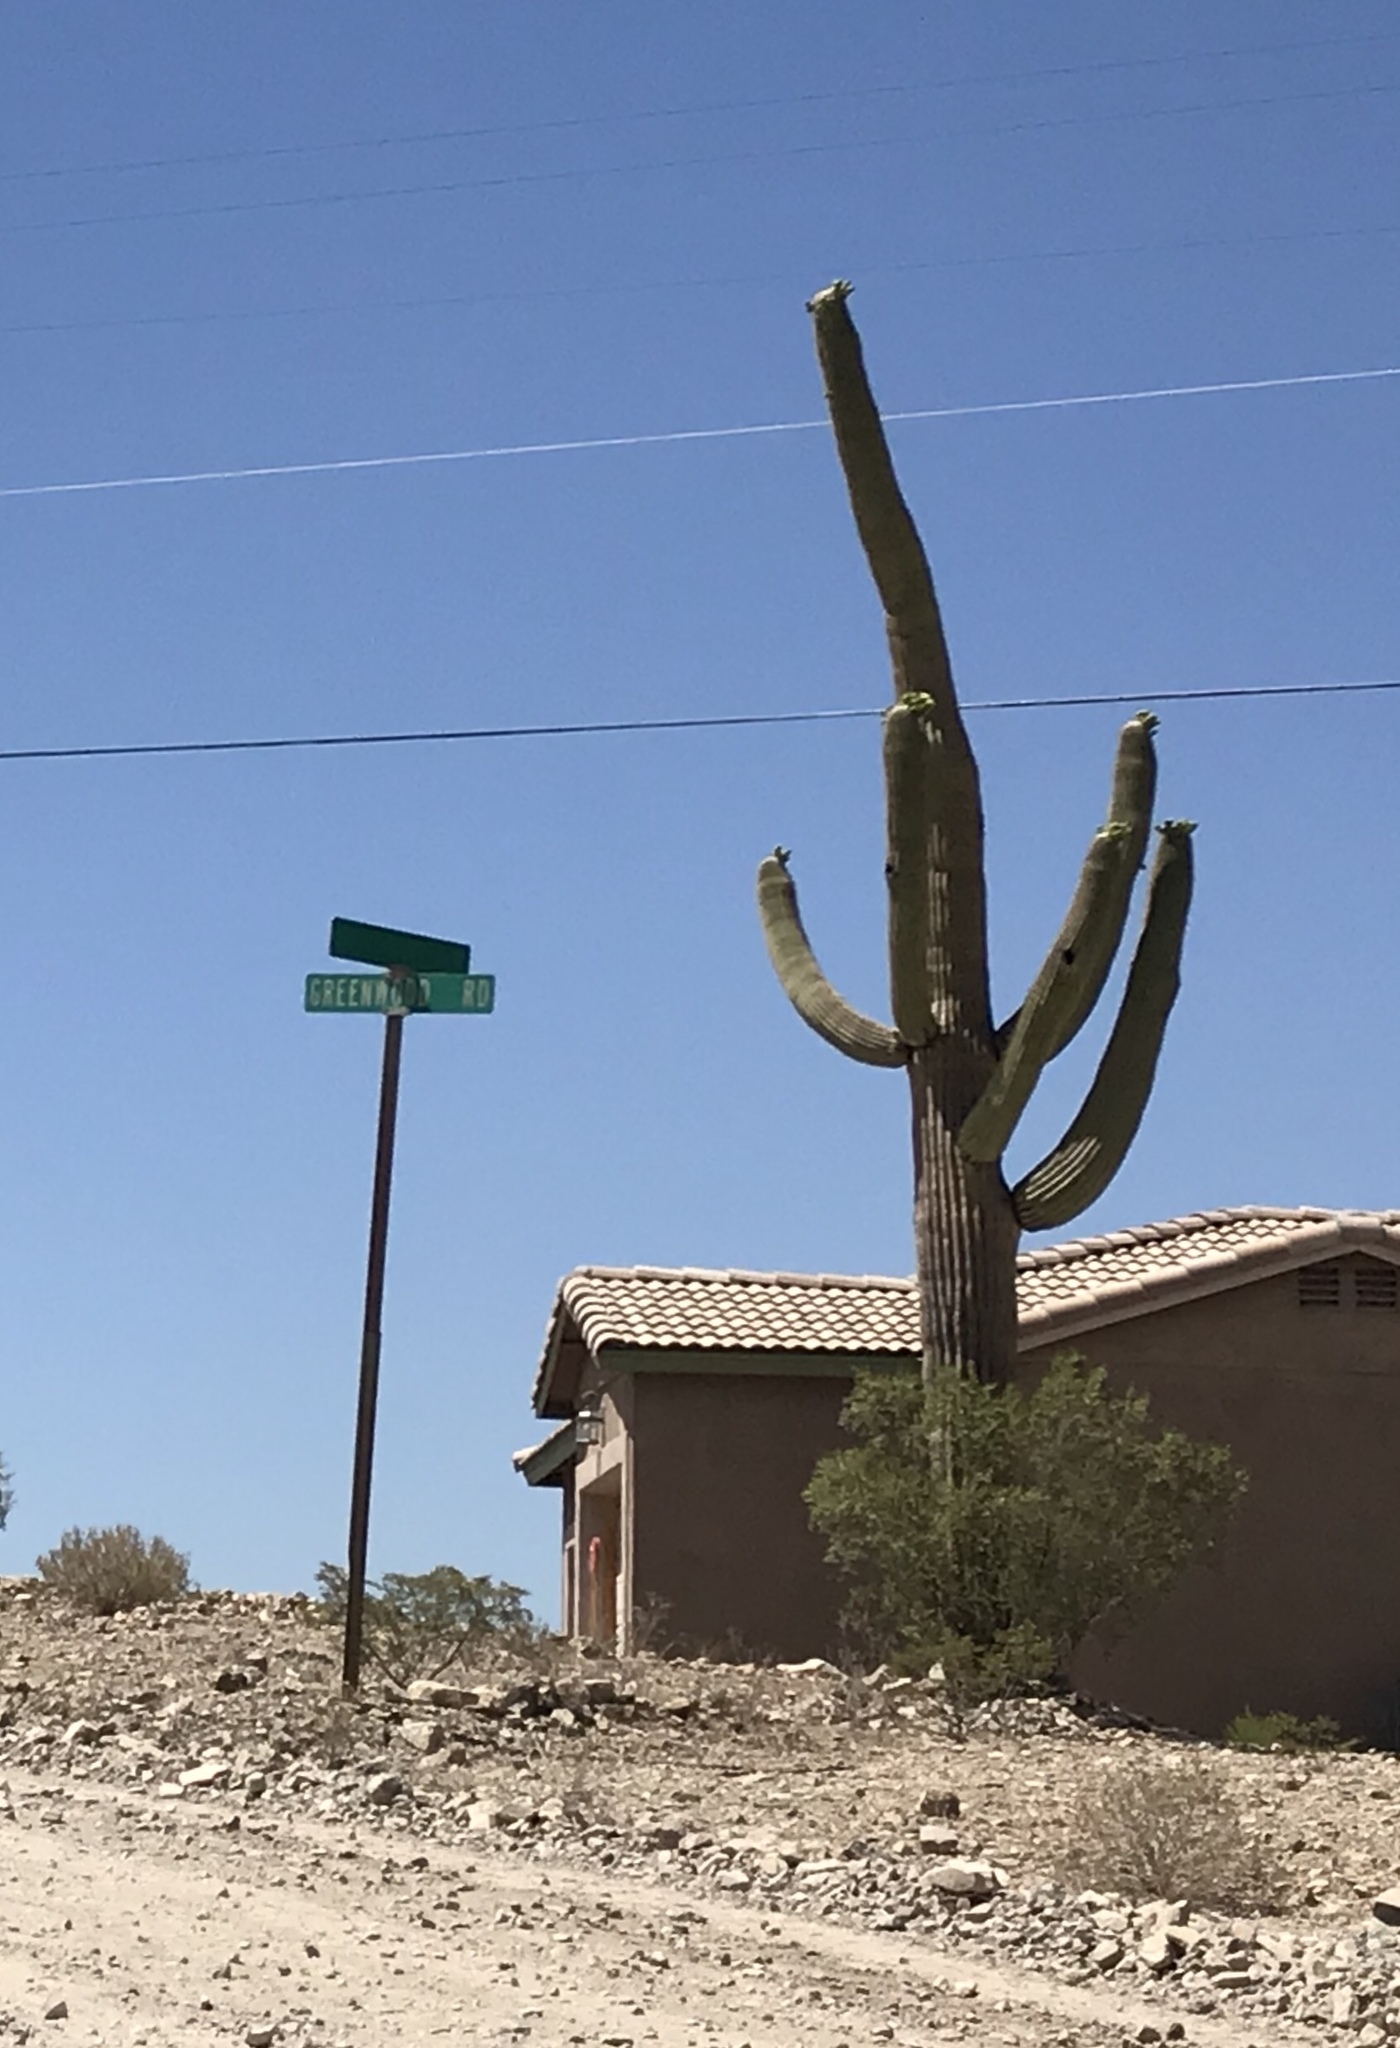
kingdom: Plantae
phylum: Tracheophyta
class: Magnoliopsida
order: Caryophyllales
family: Cactaceae
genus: Carnegiea
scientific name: Carnegiea gigantea
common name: Saguaro
